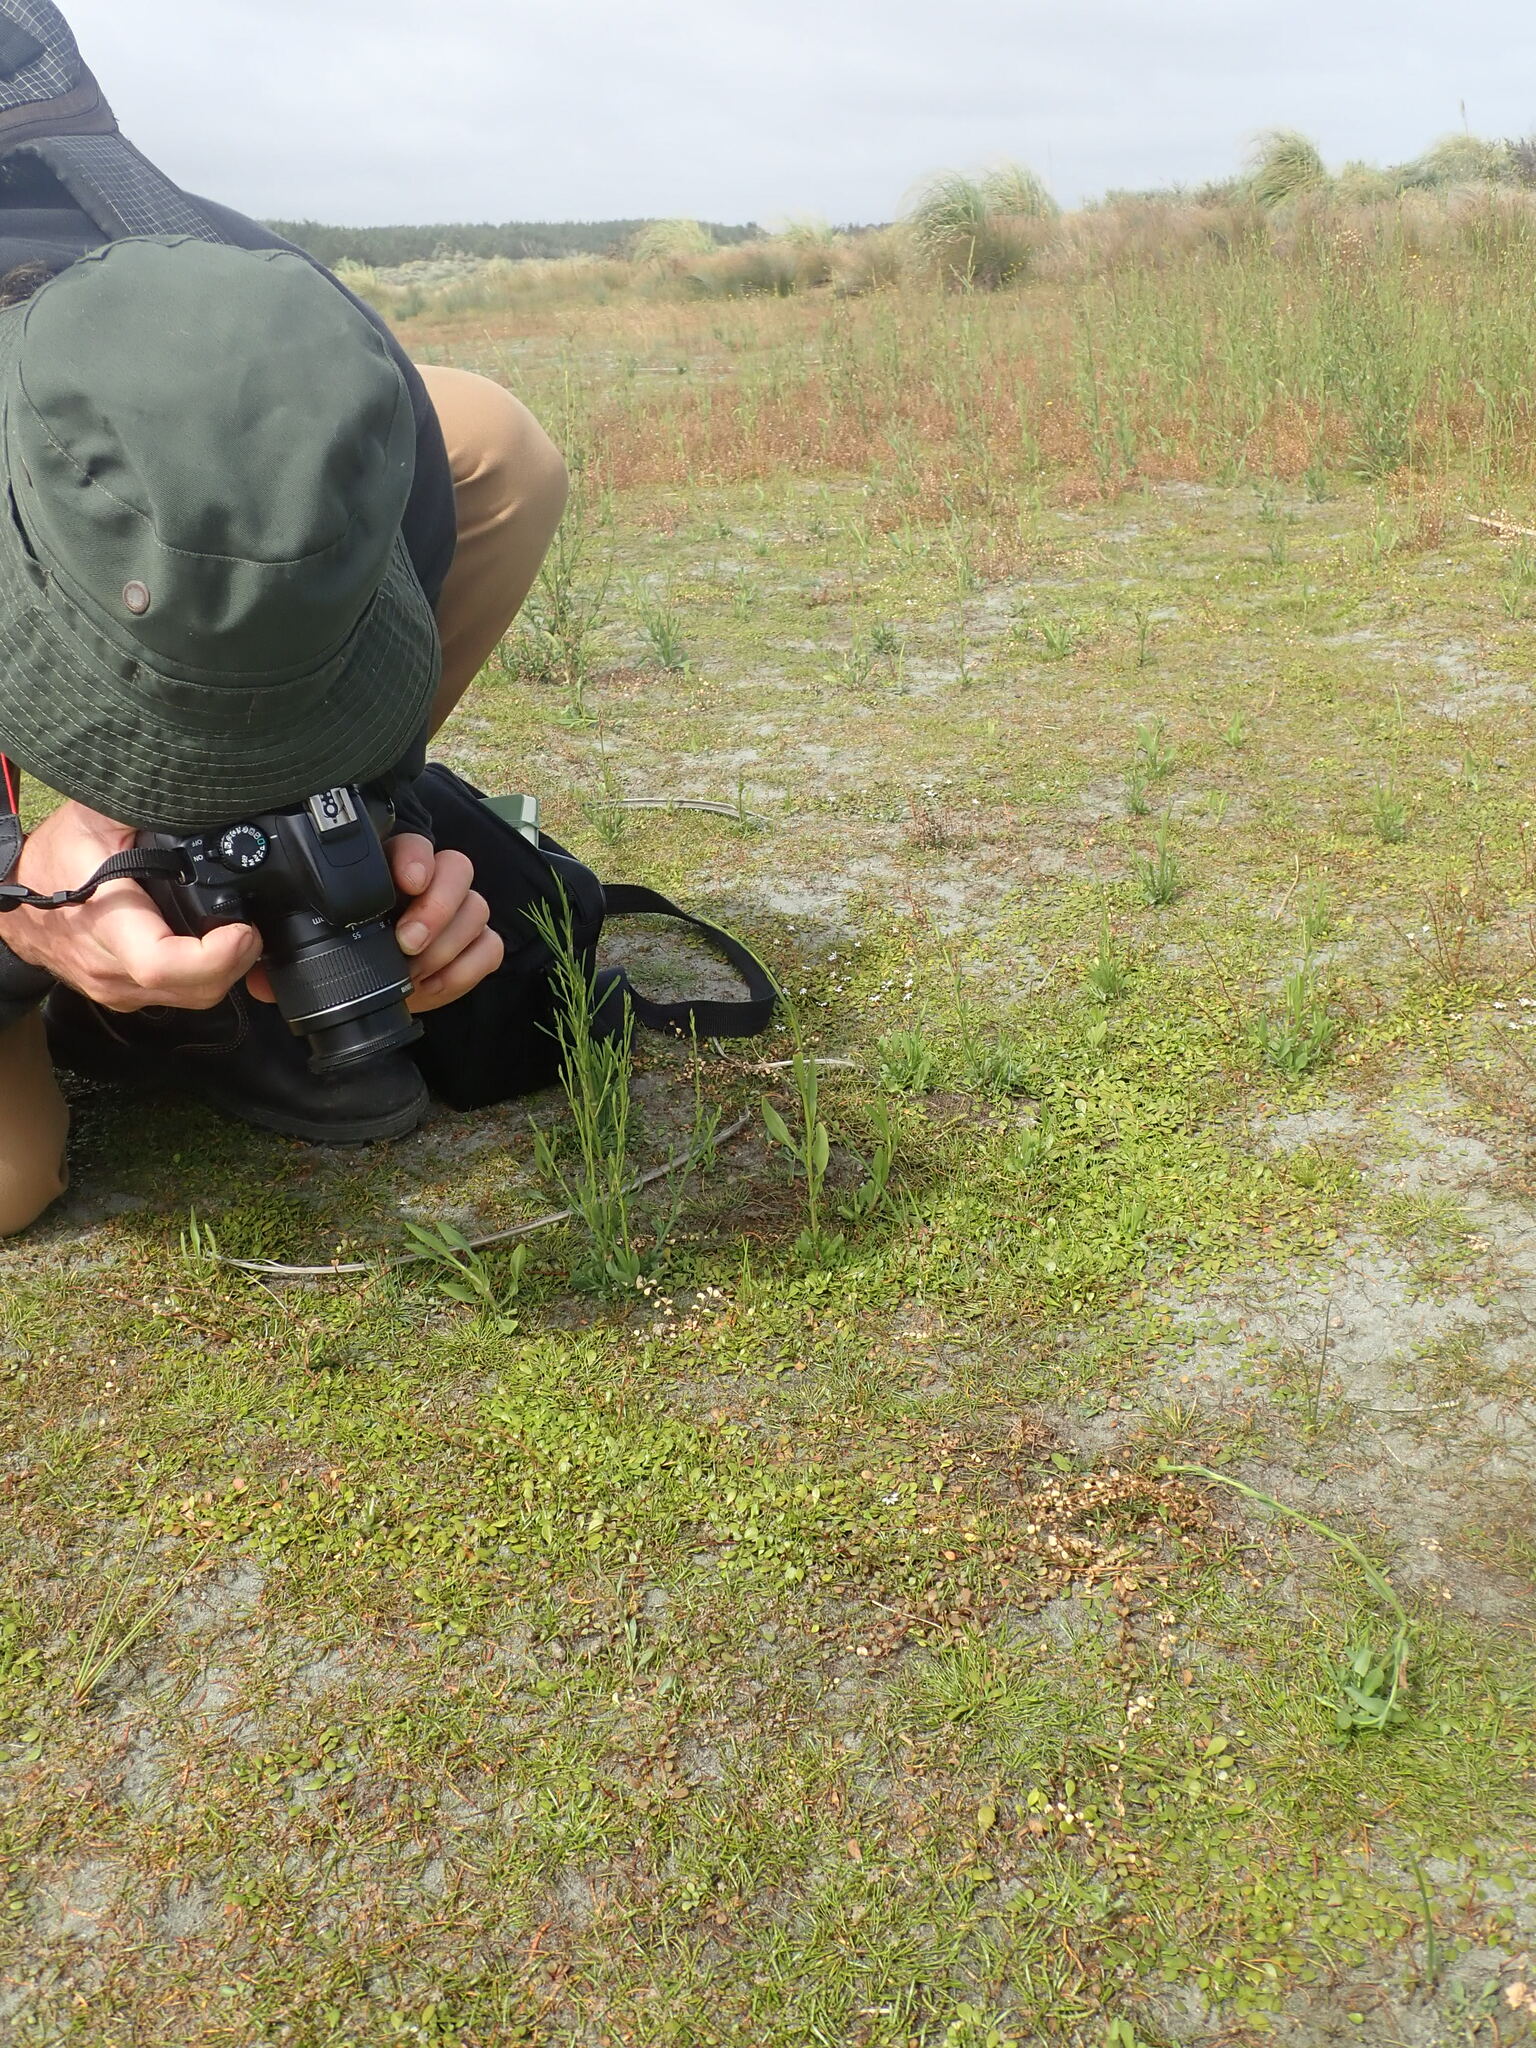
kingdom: Plantae
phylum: Tracheophyta
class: Magnoliopsida
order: Apiales
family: Apiaceae
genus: Lilaeopsis
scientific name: Lilaeopsis novae-zelandiae
